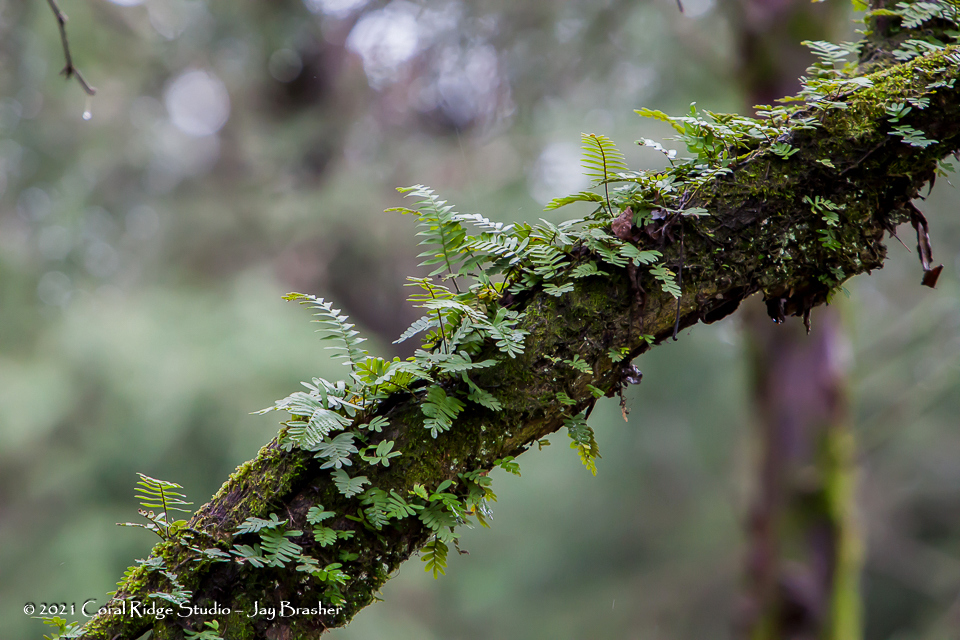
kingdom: Plantae
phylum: Tracheophyta
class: Polypodiopsida
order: Polypodiales
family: Polypodiaceae
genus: Pleopeltis
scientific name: Pleopeltis michauxiana
